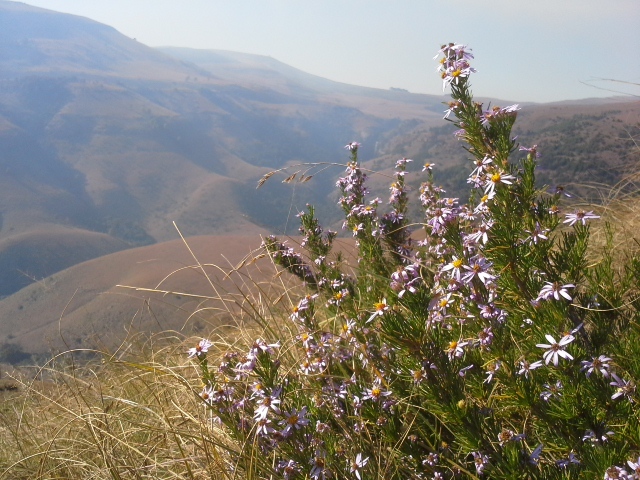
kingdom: Plantae
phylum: Tracheophyta
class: Magnoliopsida
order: Asterales
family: Asteraceae
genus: Felicia
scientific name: Felicia filifolia
